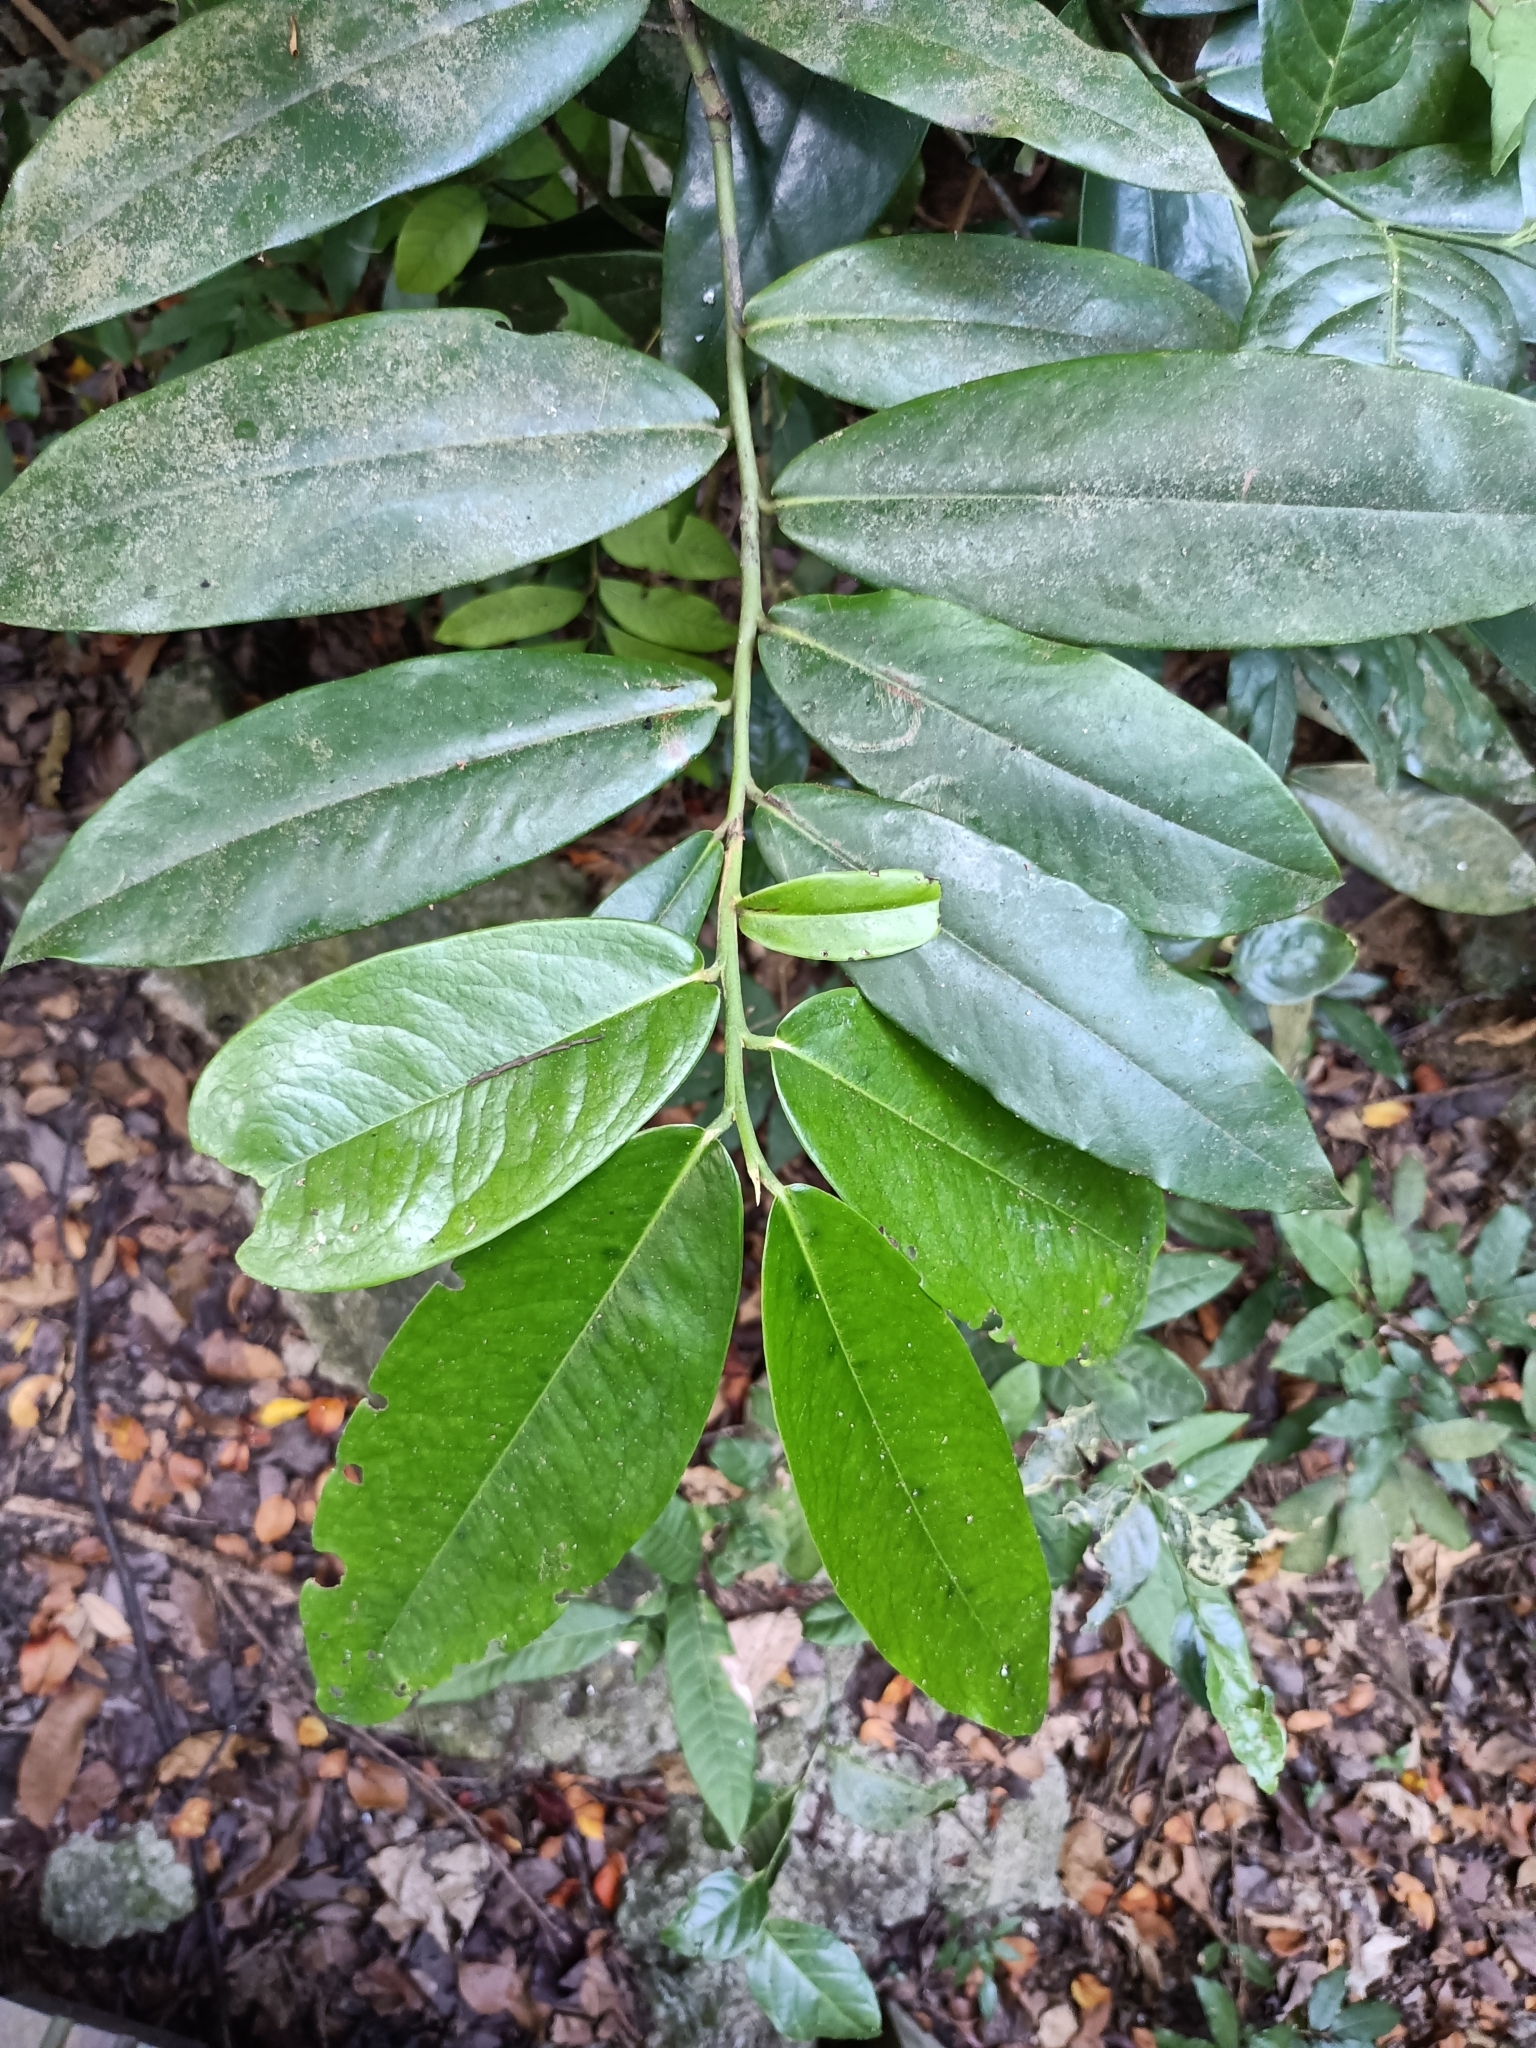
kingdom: Plantae
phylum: Tracheophyta
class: Magnoliopsida
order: Ericales
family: Ebenaceae
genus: Diospyros
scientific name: Diospyros blancoi
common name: Mabola-tree
